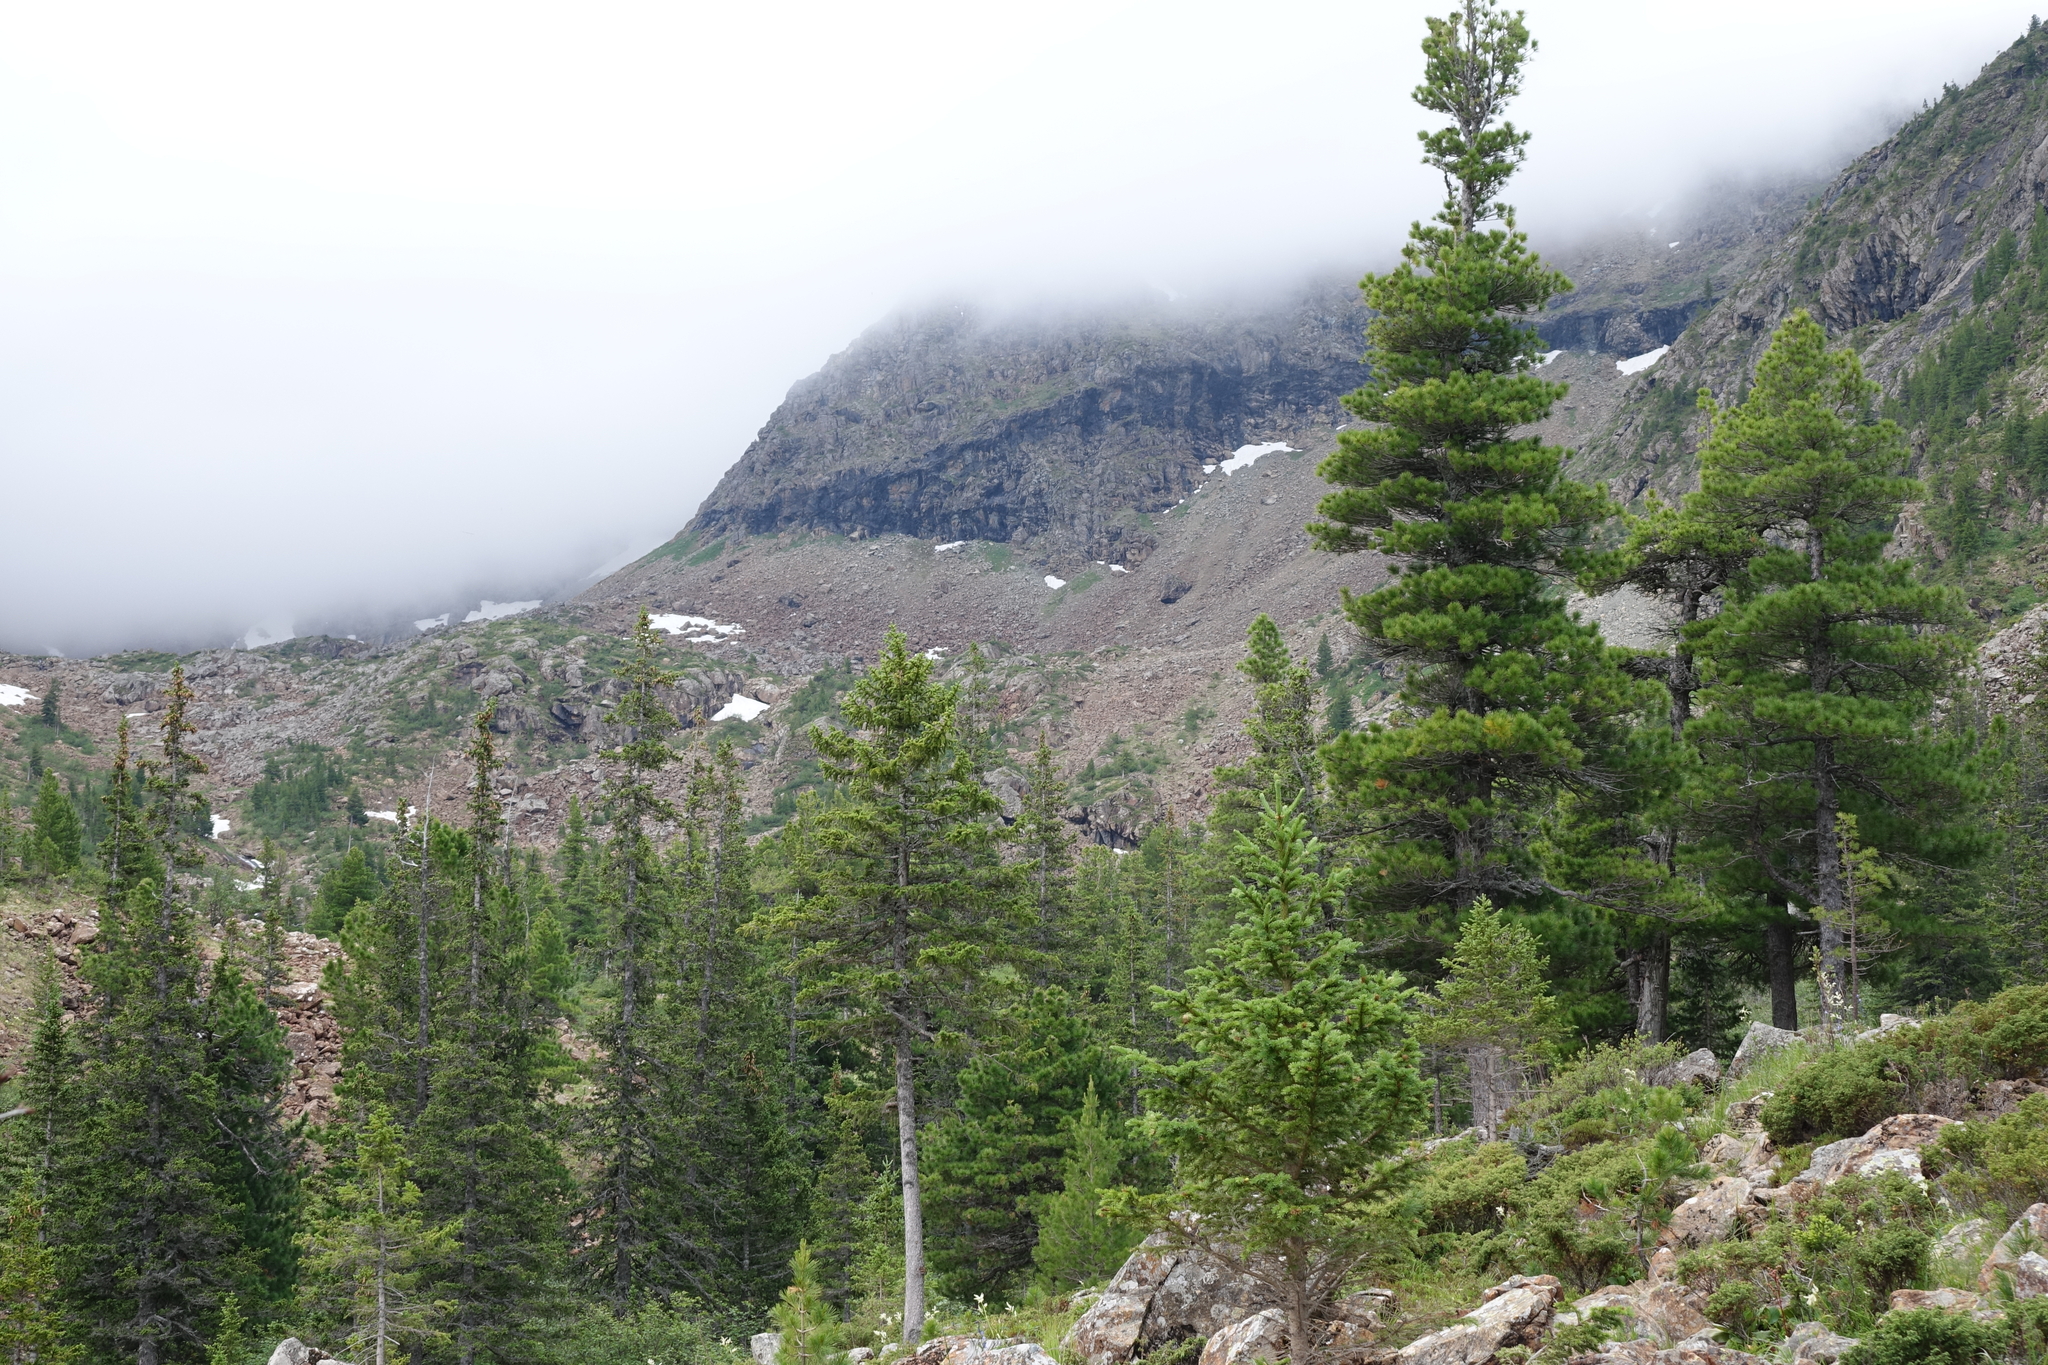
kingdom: Plantae
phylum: Tracheophyta
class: Pinopsida
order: Pinales
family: Pinaceae
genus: Pinus
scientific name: Pinus sibirica
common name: Siberian pine
